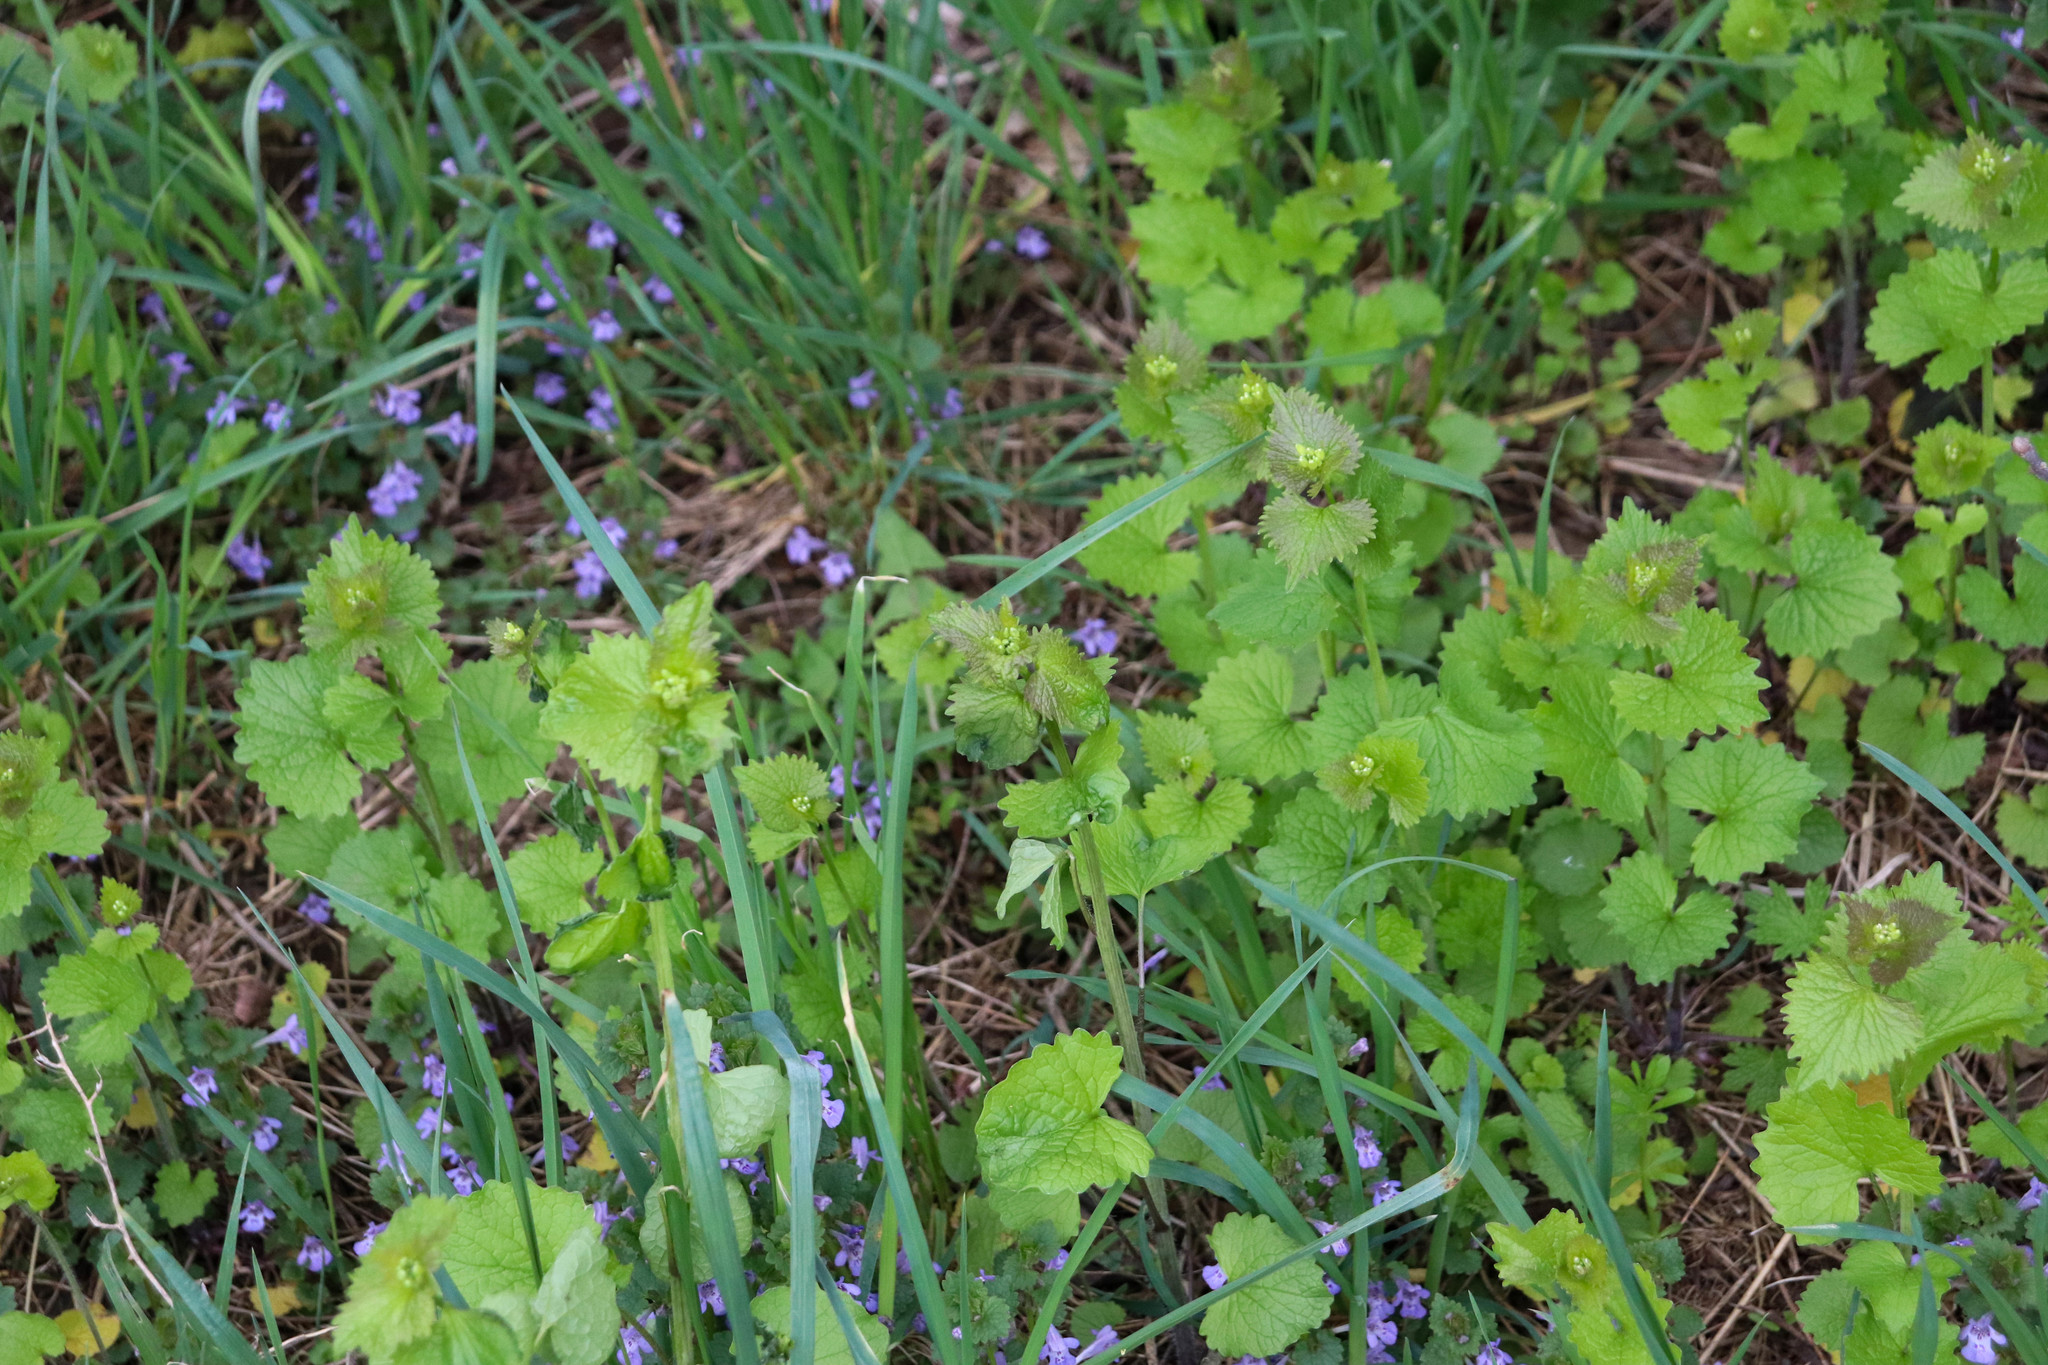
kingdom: Plantae
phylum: Tracheophyta
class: Magnoliopsida
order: Brassicales
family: Brassicaceae
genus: Alliaria
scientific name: Alliaria petiolata
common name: Garlic mustard
